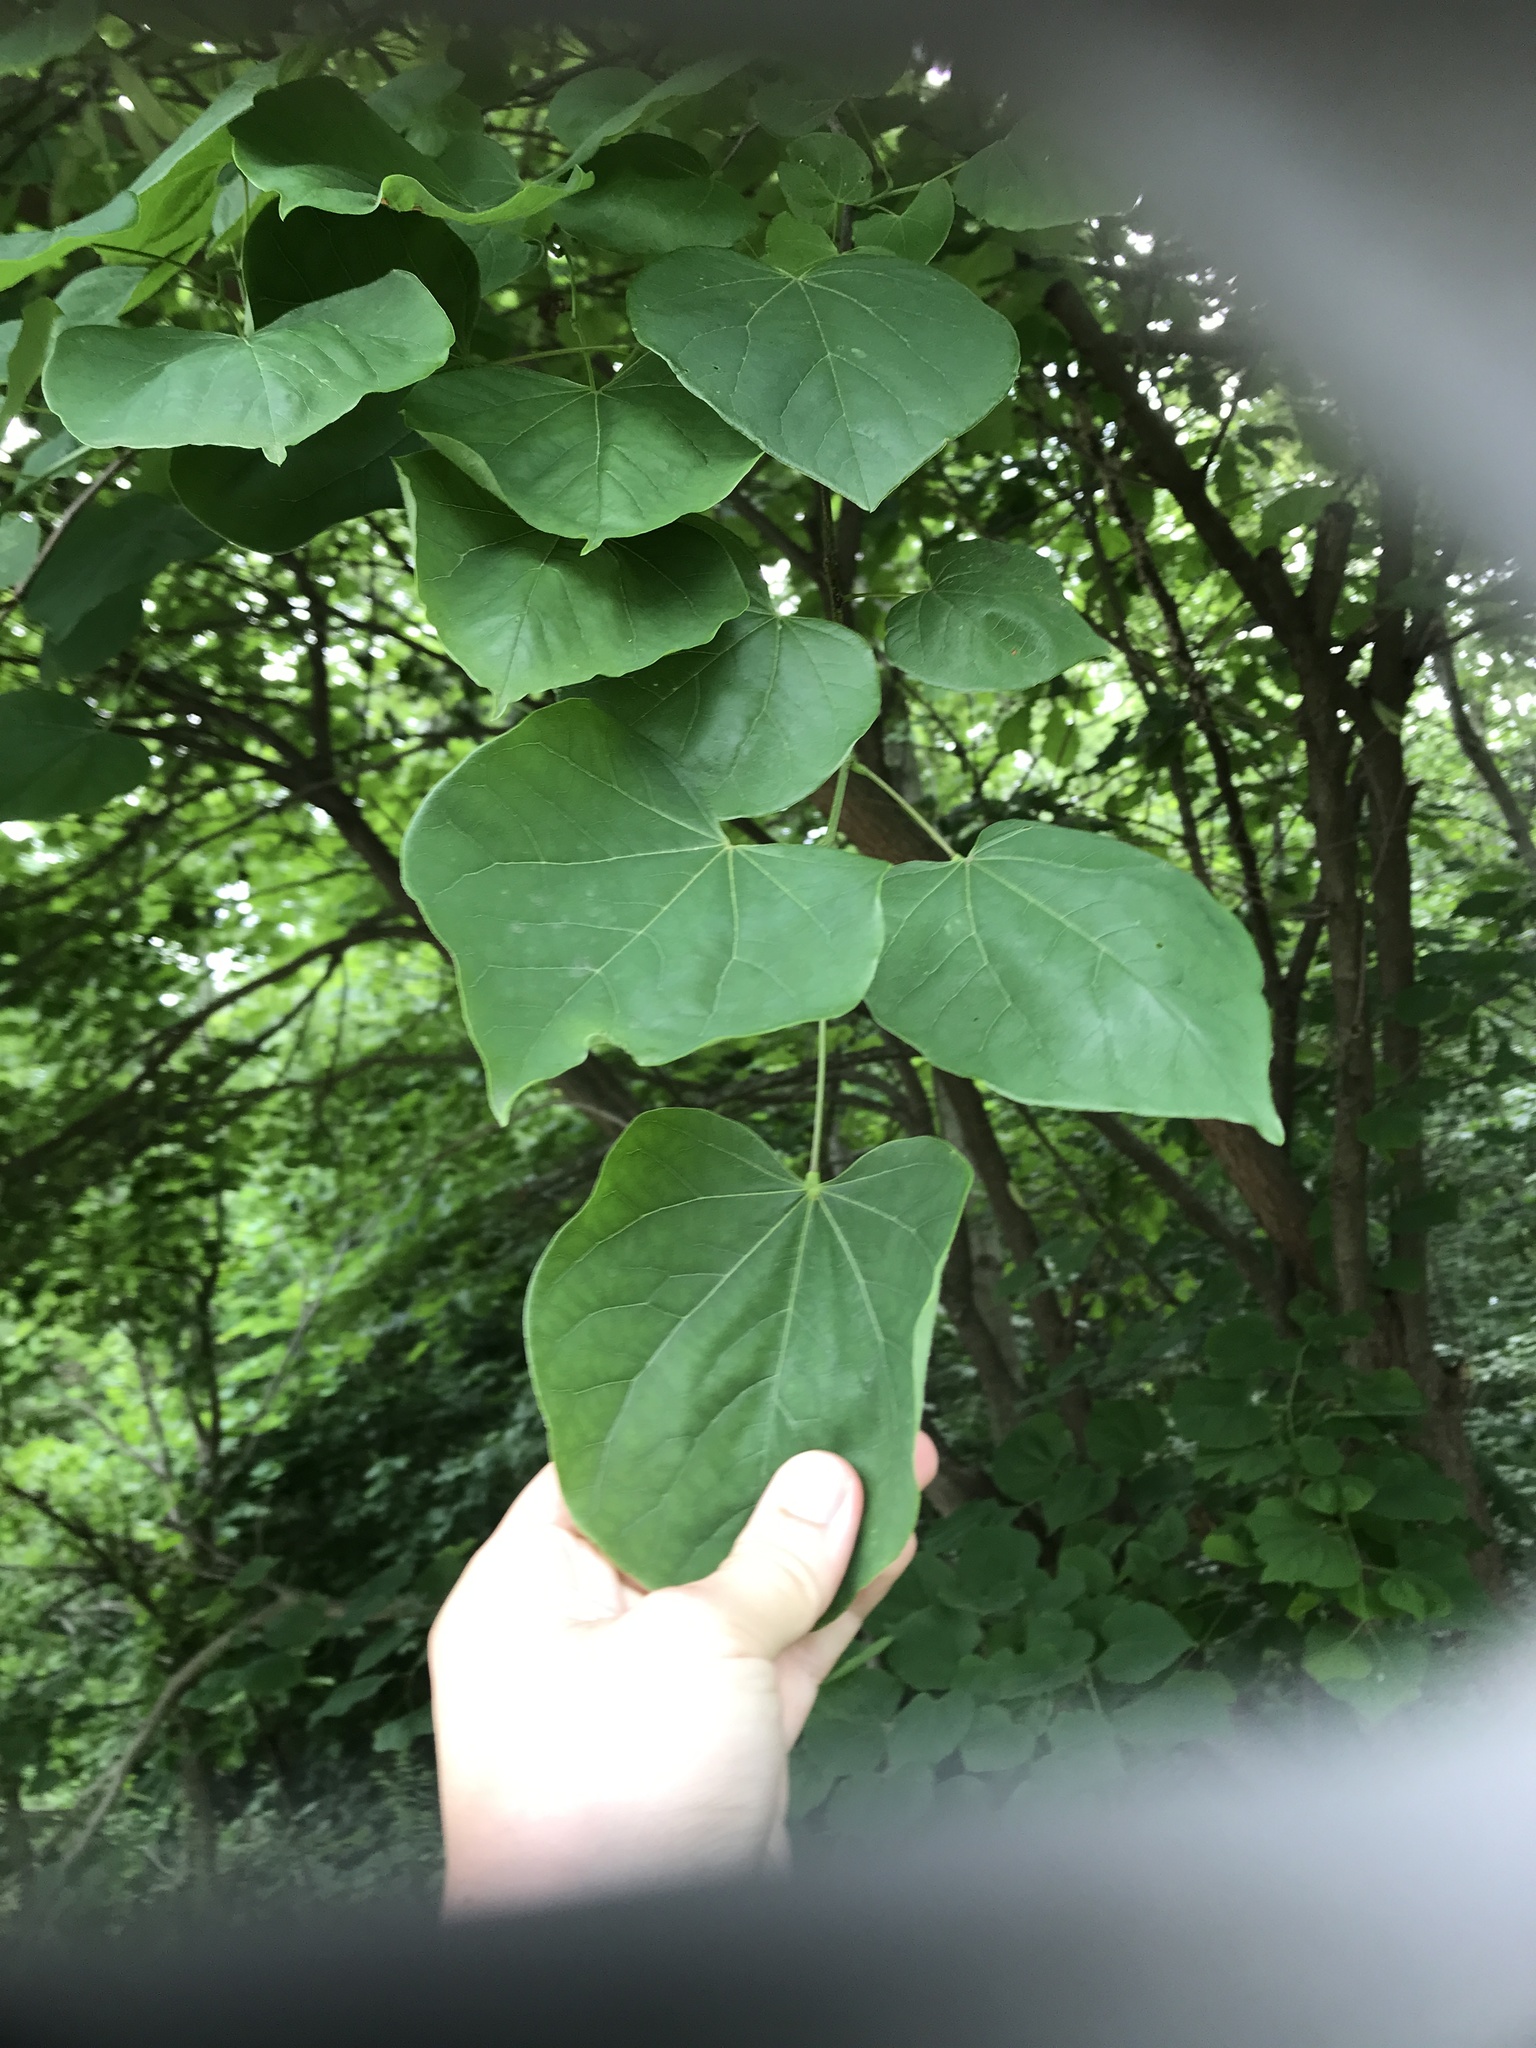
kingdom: Plantae
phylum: Tracheophyta
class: Magnoliopsida
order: Fabales
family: Fabaceae
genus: Cercis
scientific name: Cercis canadensis
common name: Eastern redbud
